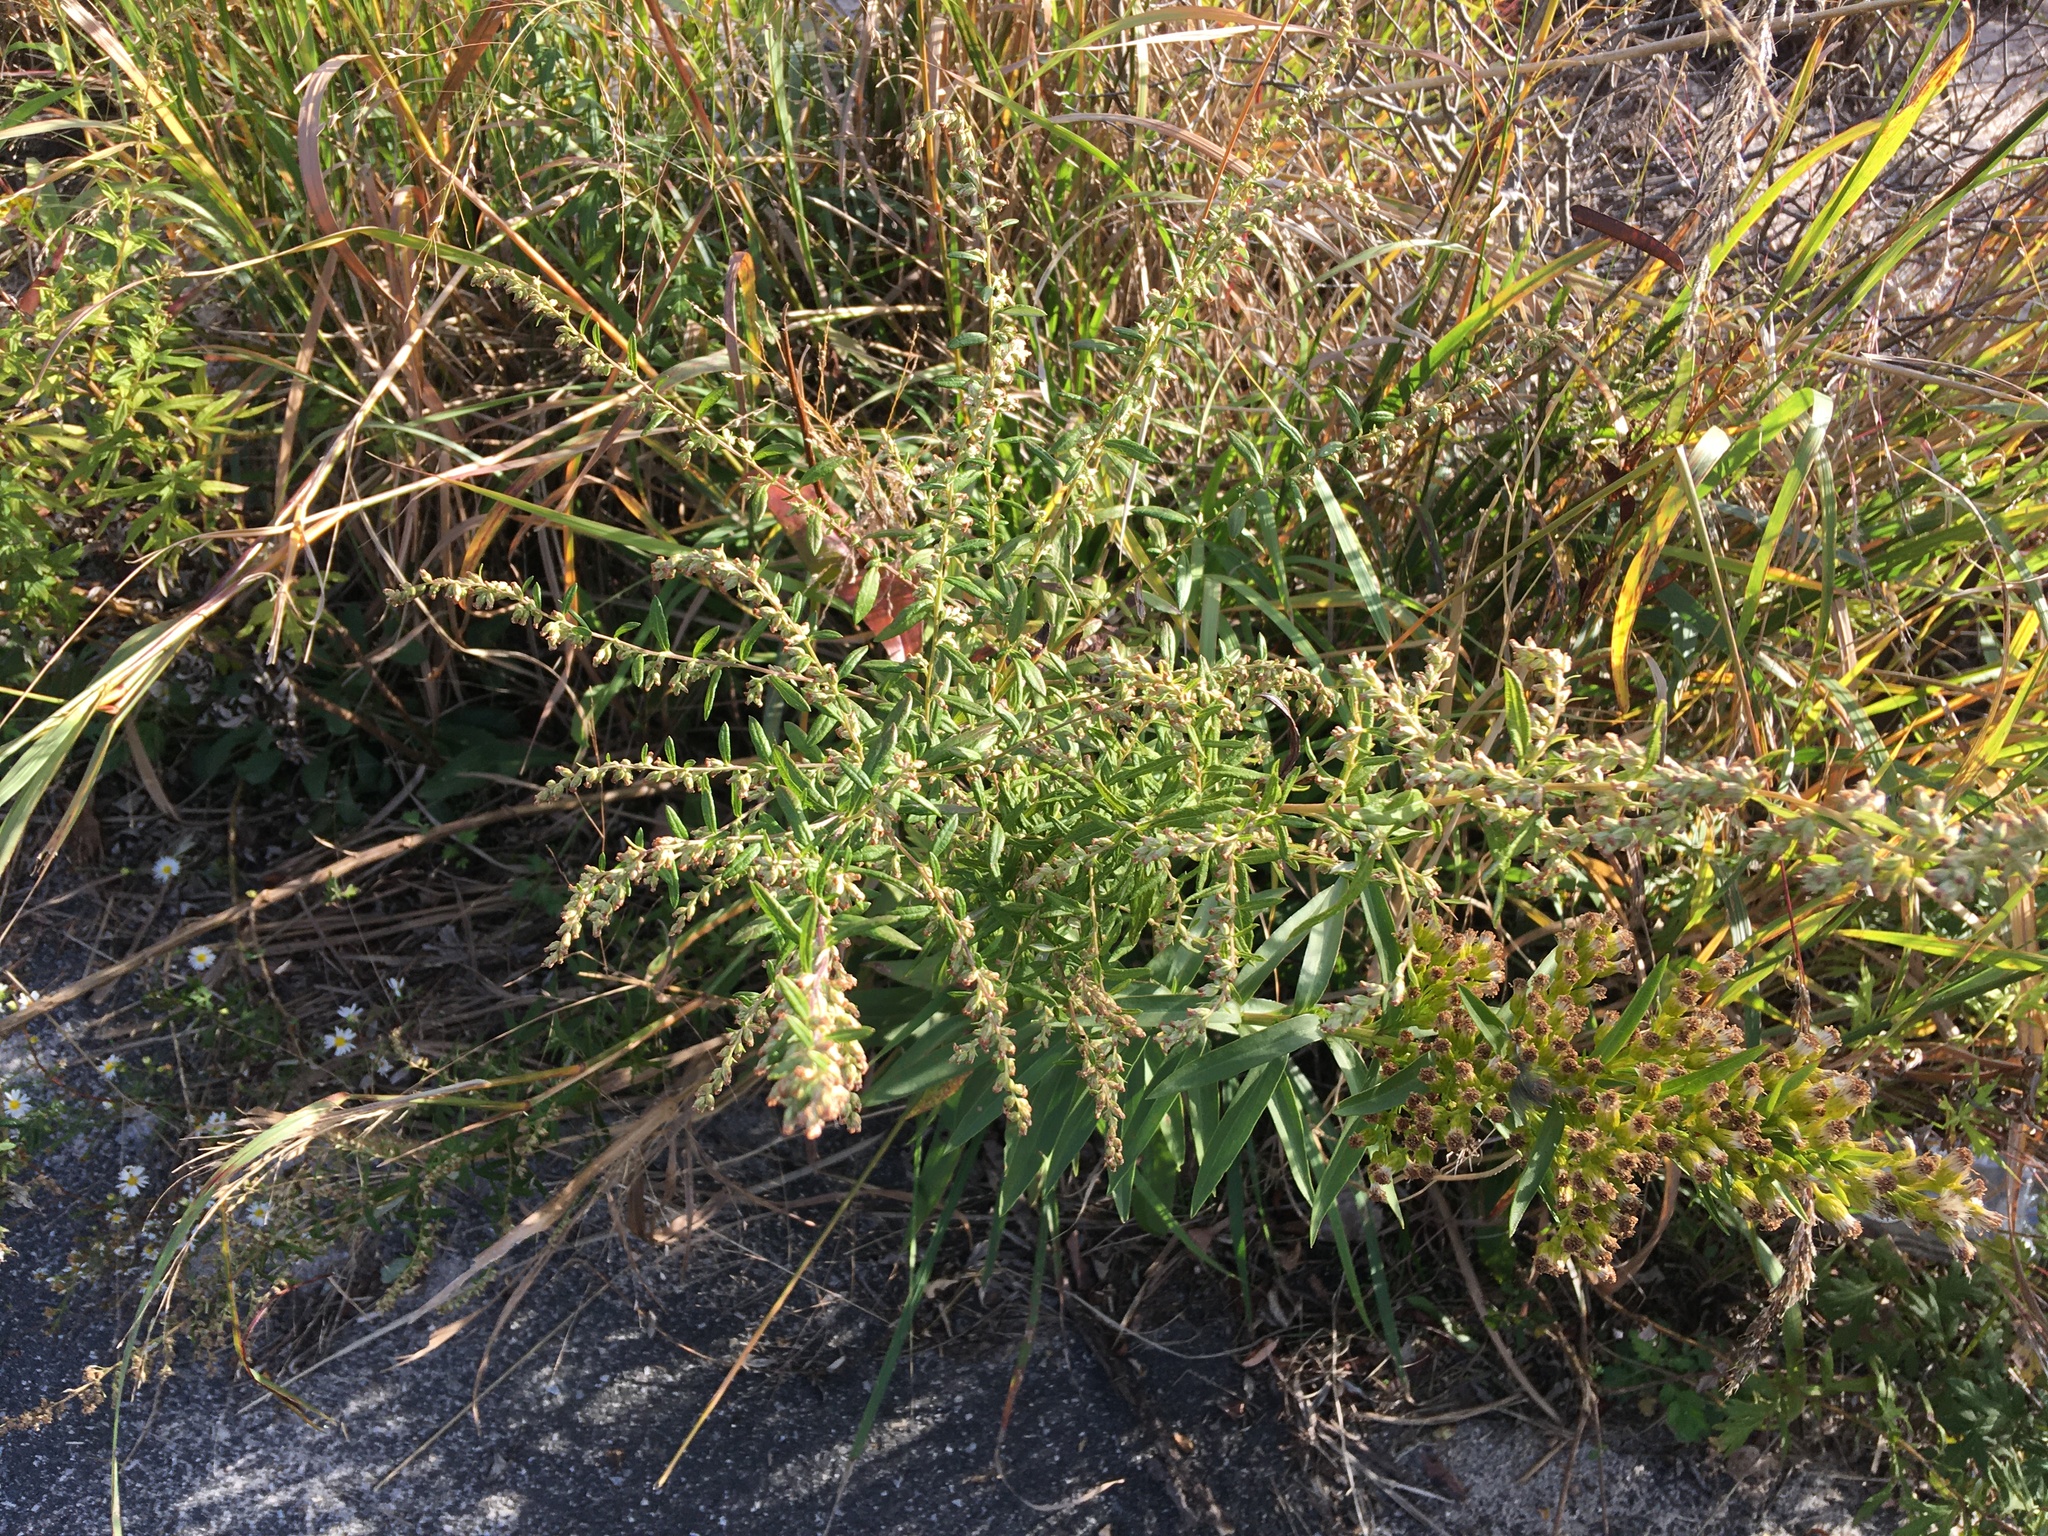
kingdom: Plantae
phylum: Tracheophyta
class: Magnoliopsida
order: Asterales
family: Asteraceae
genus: Artemisia
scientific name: Artemisia vulgaris
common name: Mugwort
